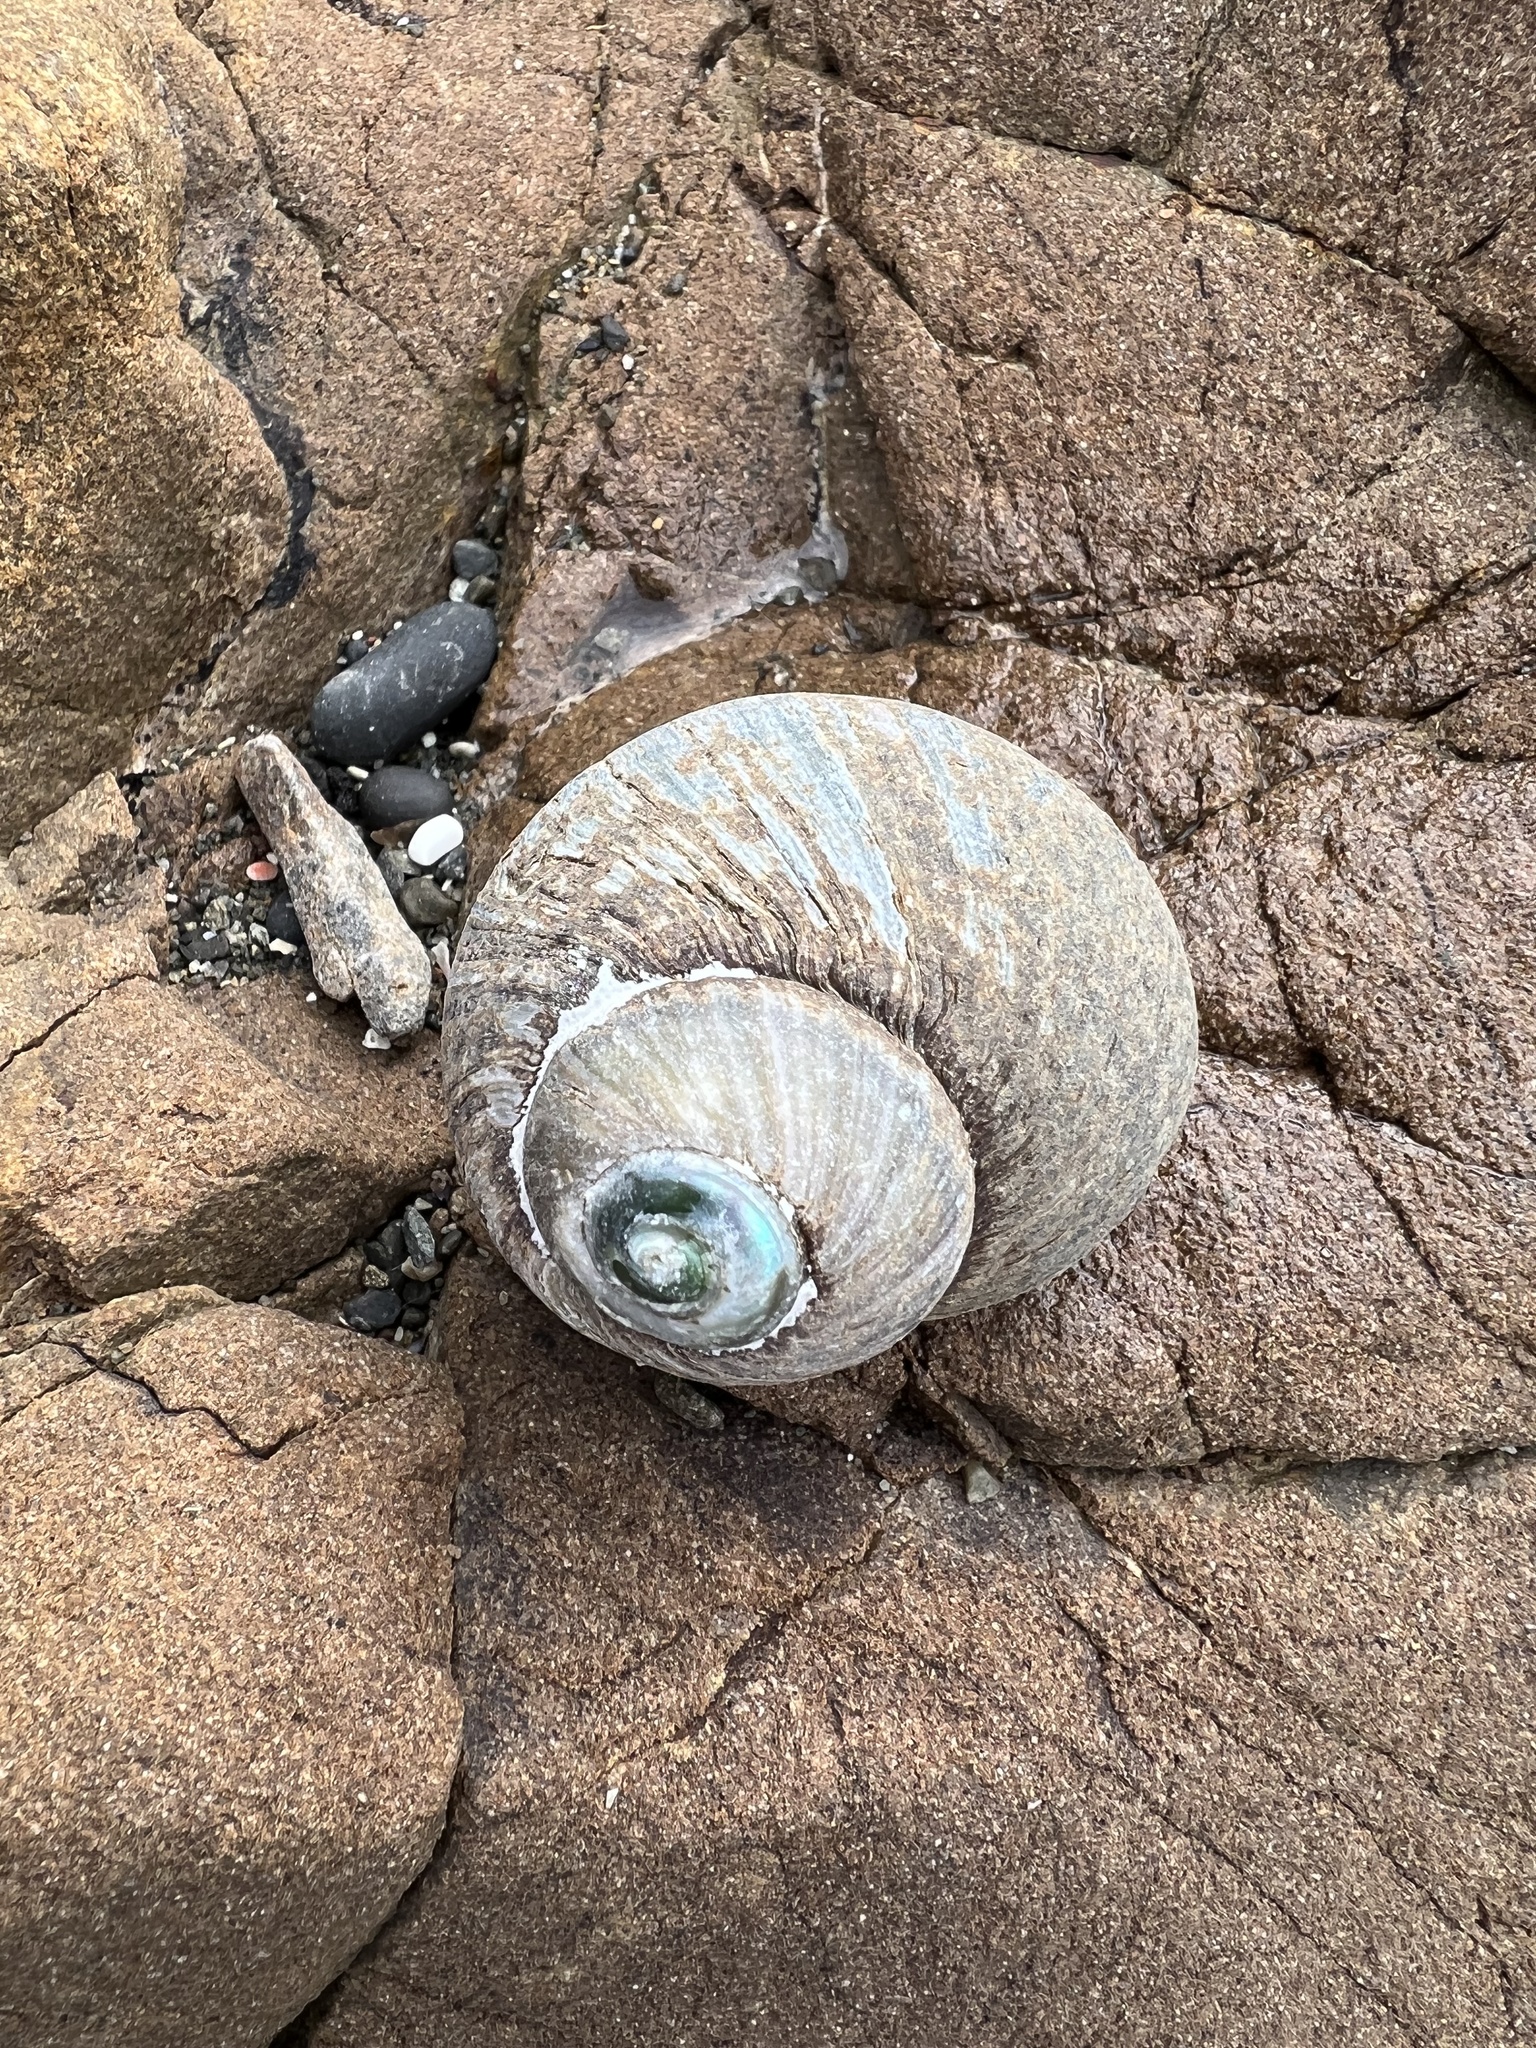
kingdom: Animalia
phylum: Mollusca
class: Gastropoda
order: Trochida
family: Turbinidae
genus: Lunella
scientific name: Lunella smaragda
